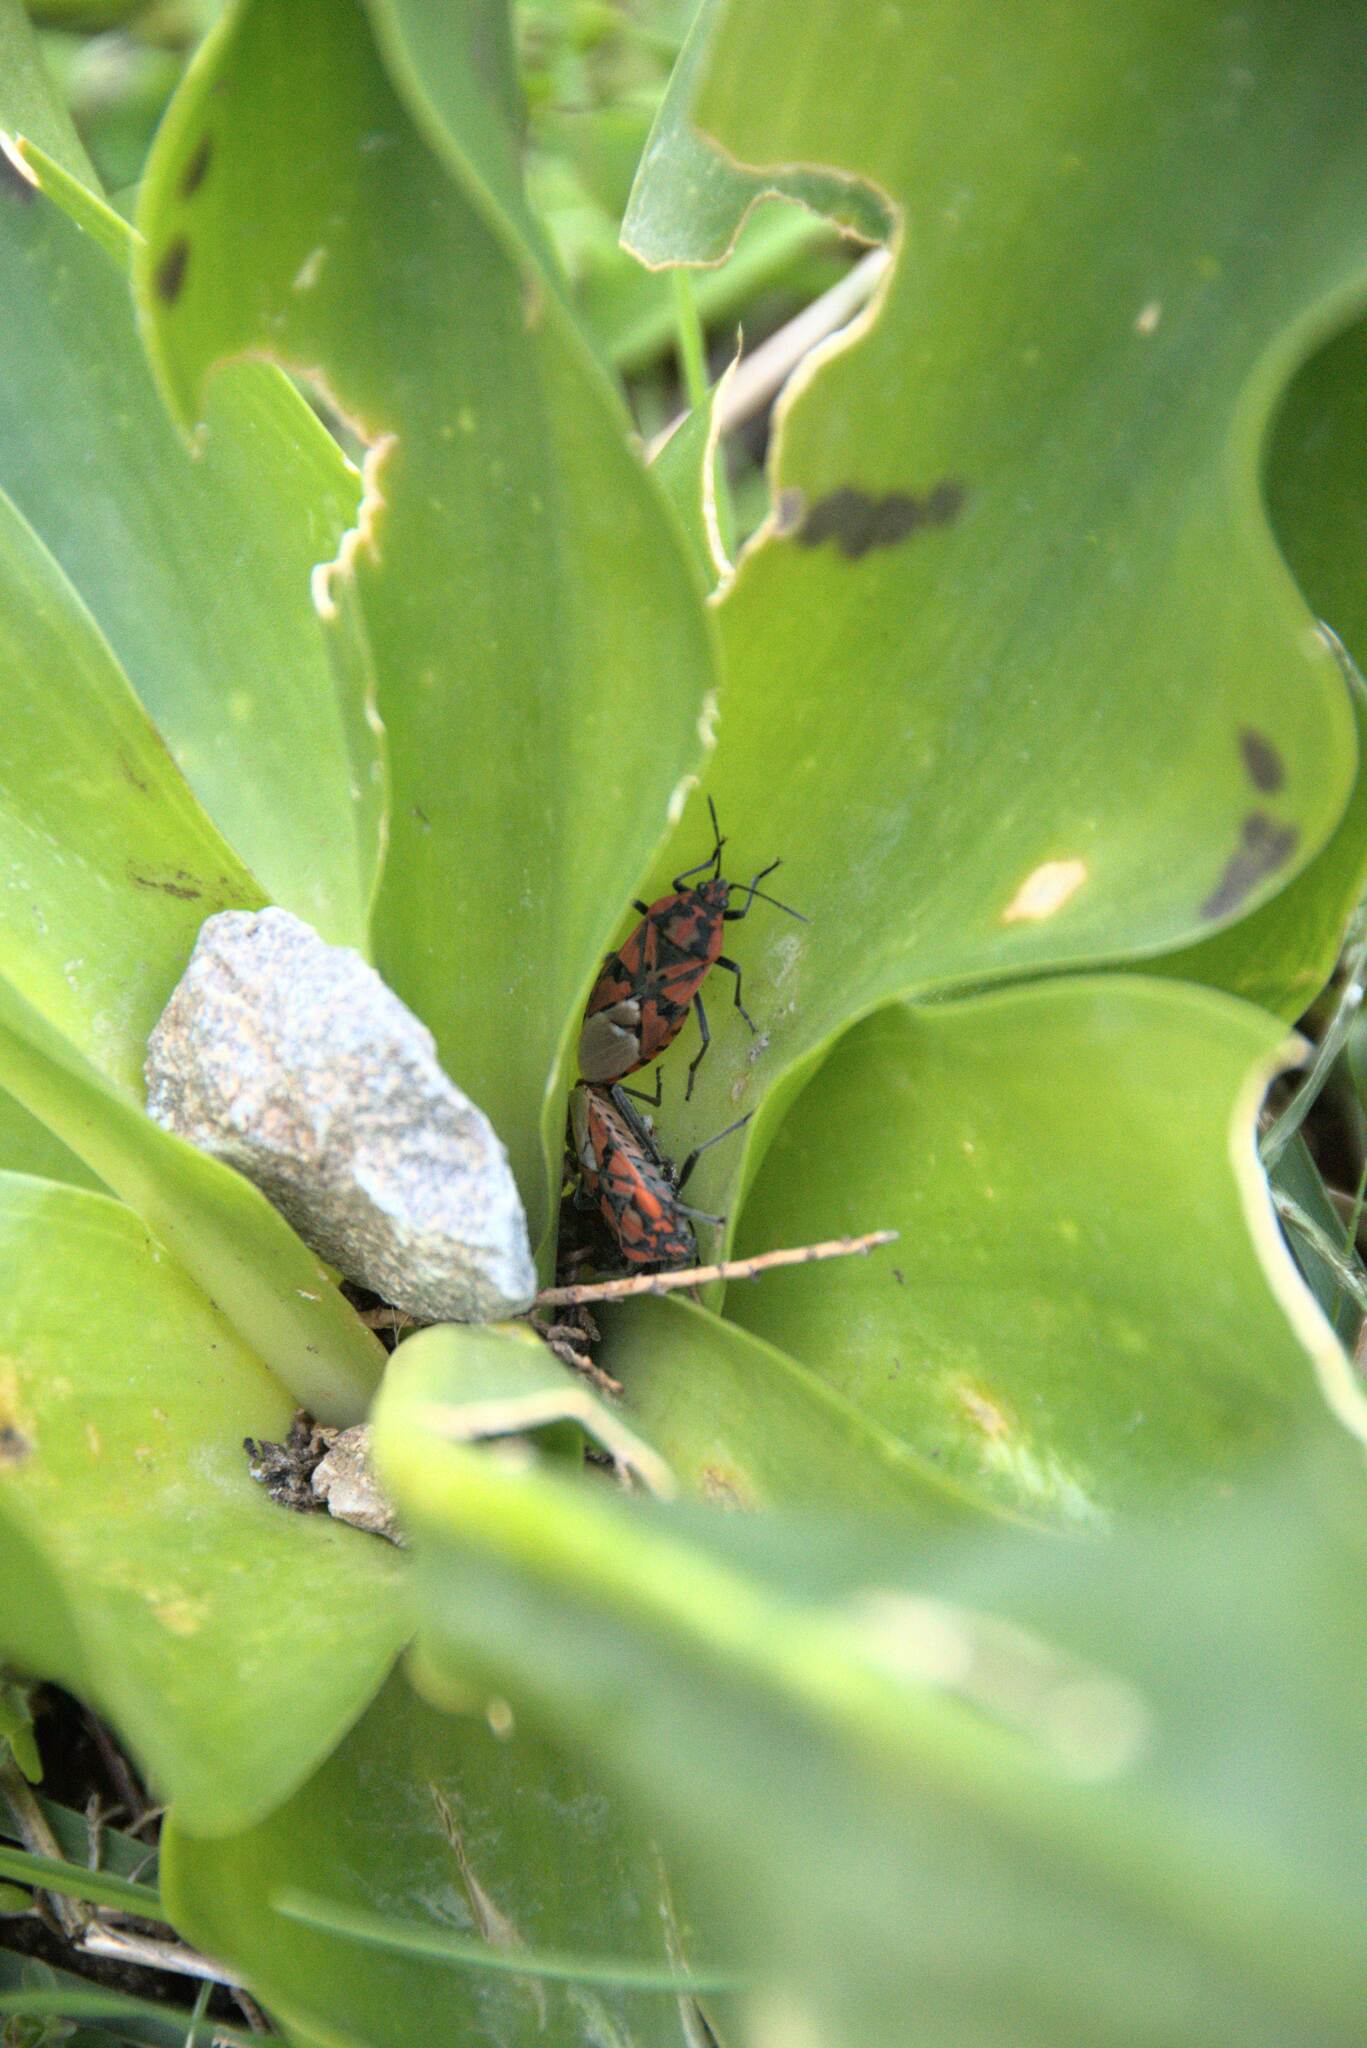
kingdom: Animalia
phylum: Arthropoda
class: Insecta
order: Hemiptera
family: Lygaeidae
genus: Spilostethus
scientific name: Spilostethus pandurus
